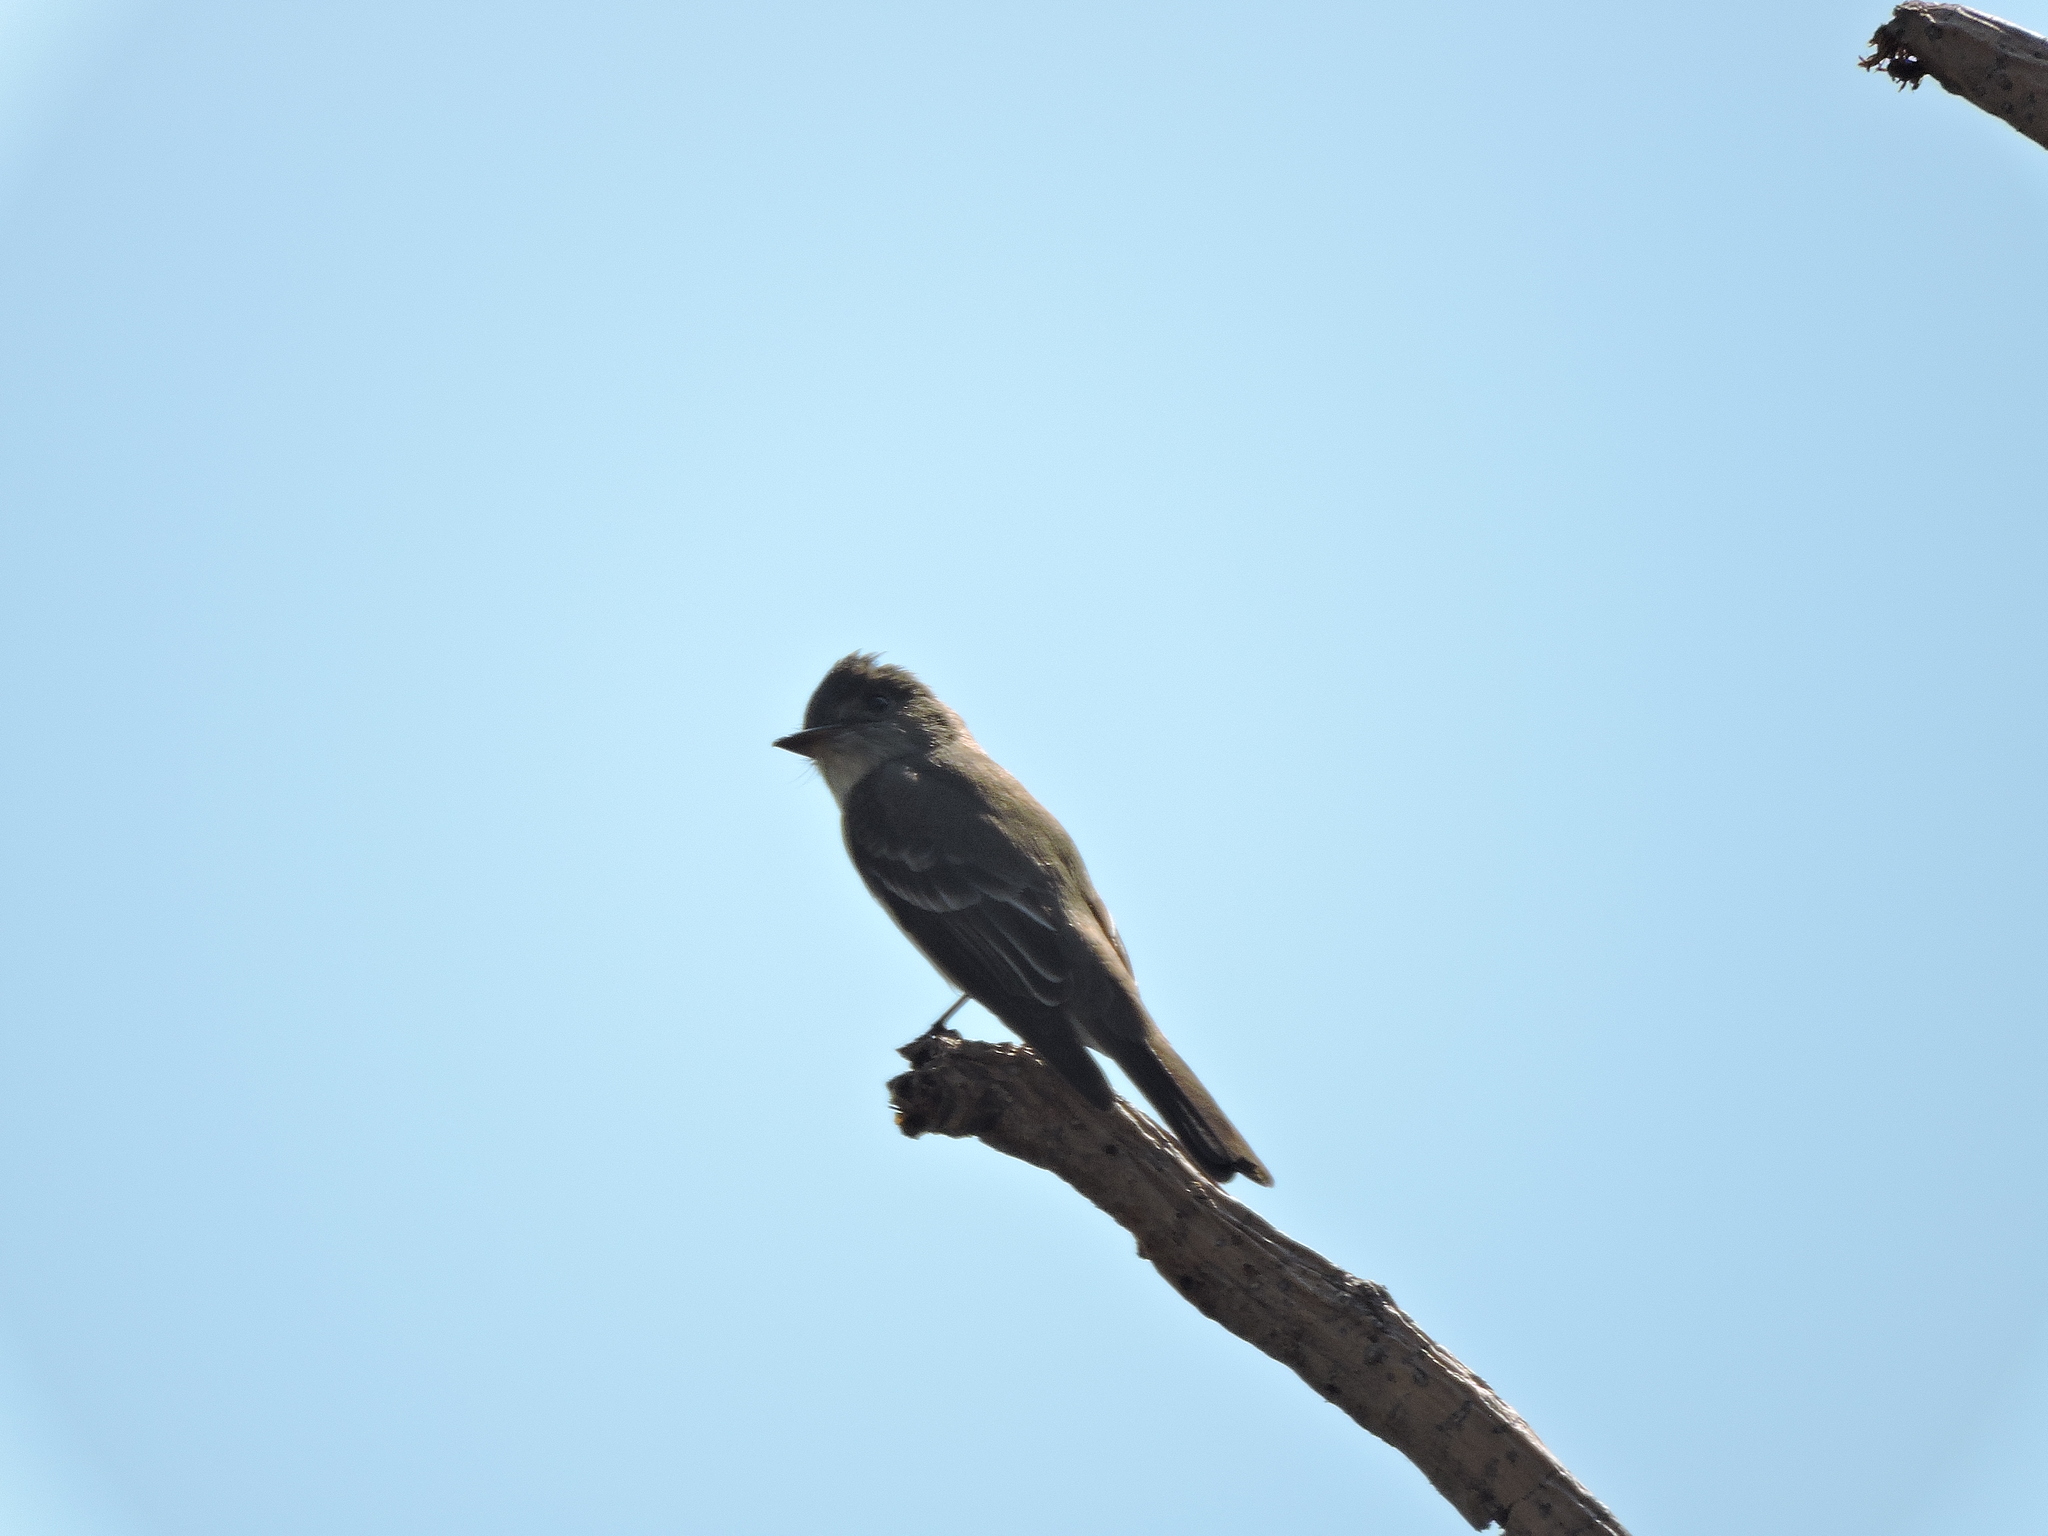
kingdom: Animalia
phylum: Chordata
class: Aves
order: Passeriformes
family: Tyrannidae
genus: Contopus
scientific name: Contopus sordidulus
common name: Western wood-pewee
